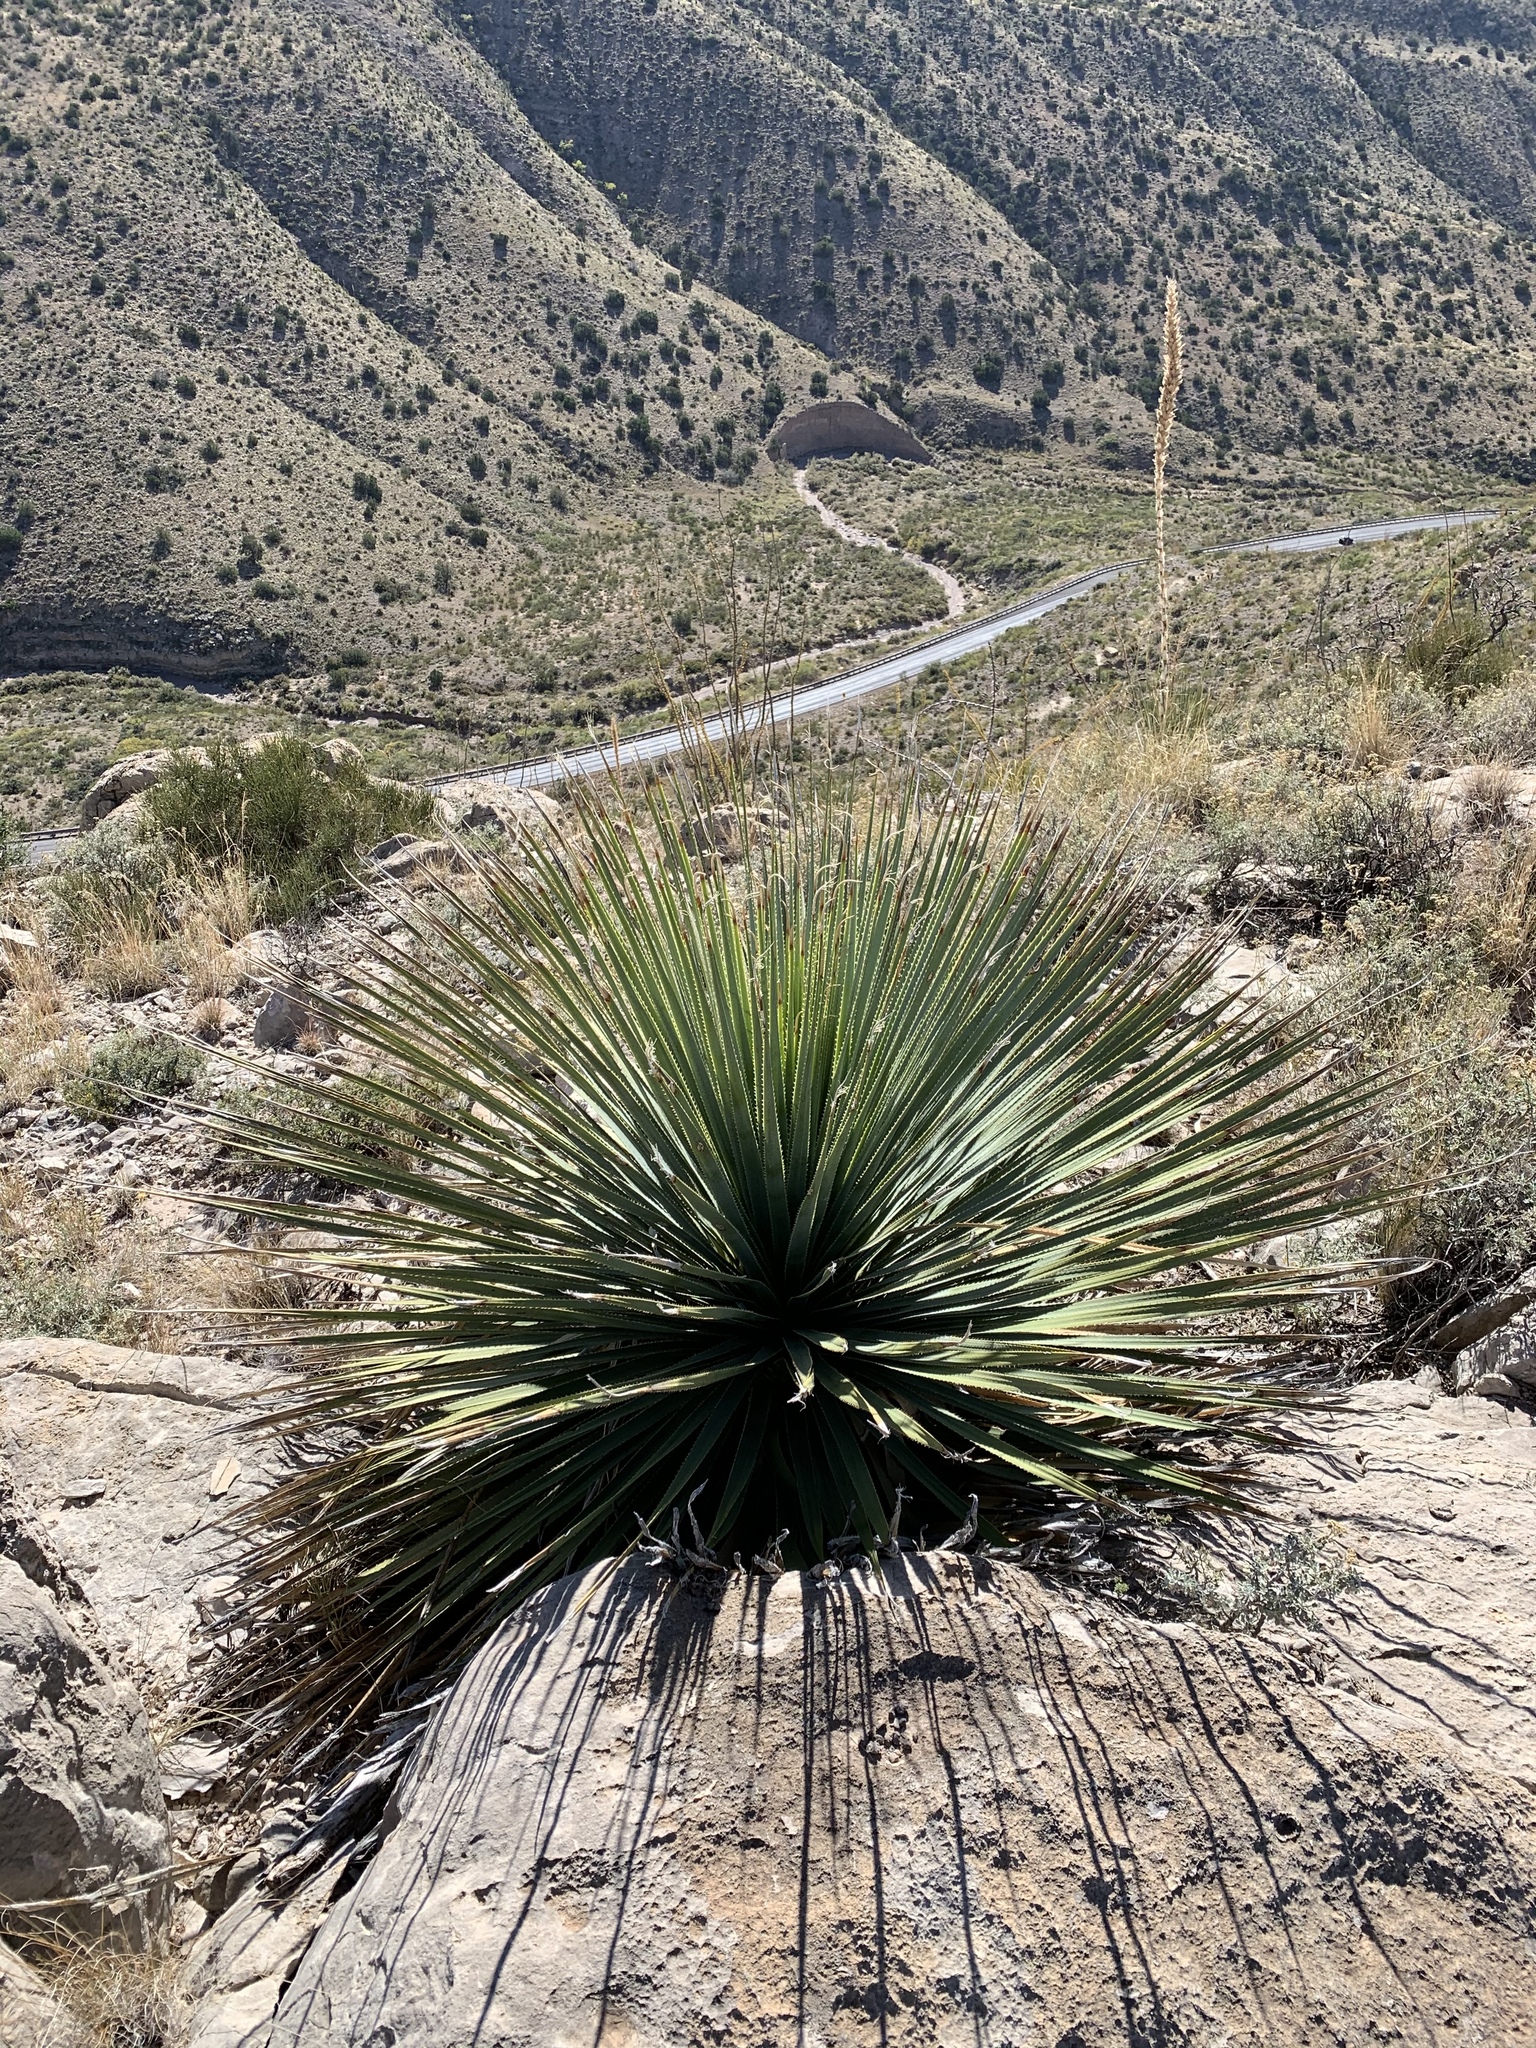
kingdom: Plantae
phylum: Tracheophyta
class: Liliopsida
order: Asparagales
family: Asparagaceae
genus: Dasylirion
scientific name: Dasylirion wheeleri
